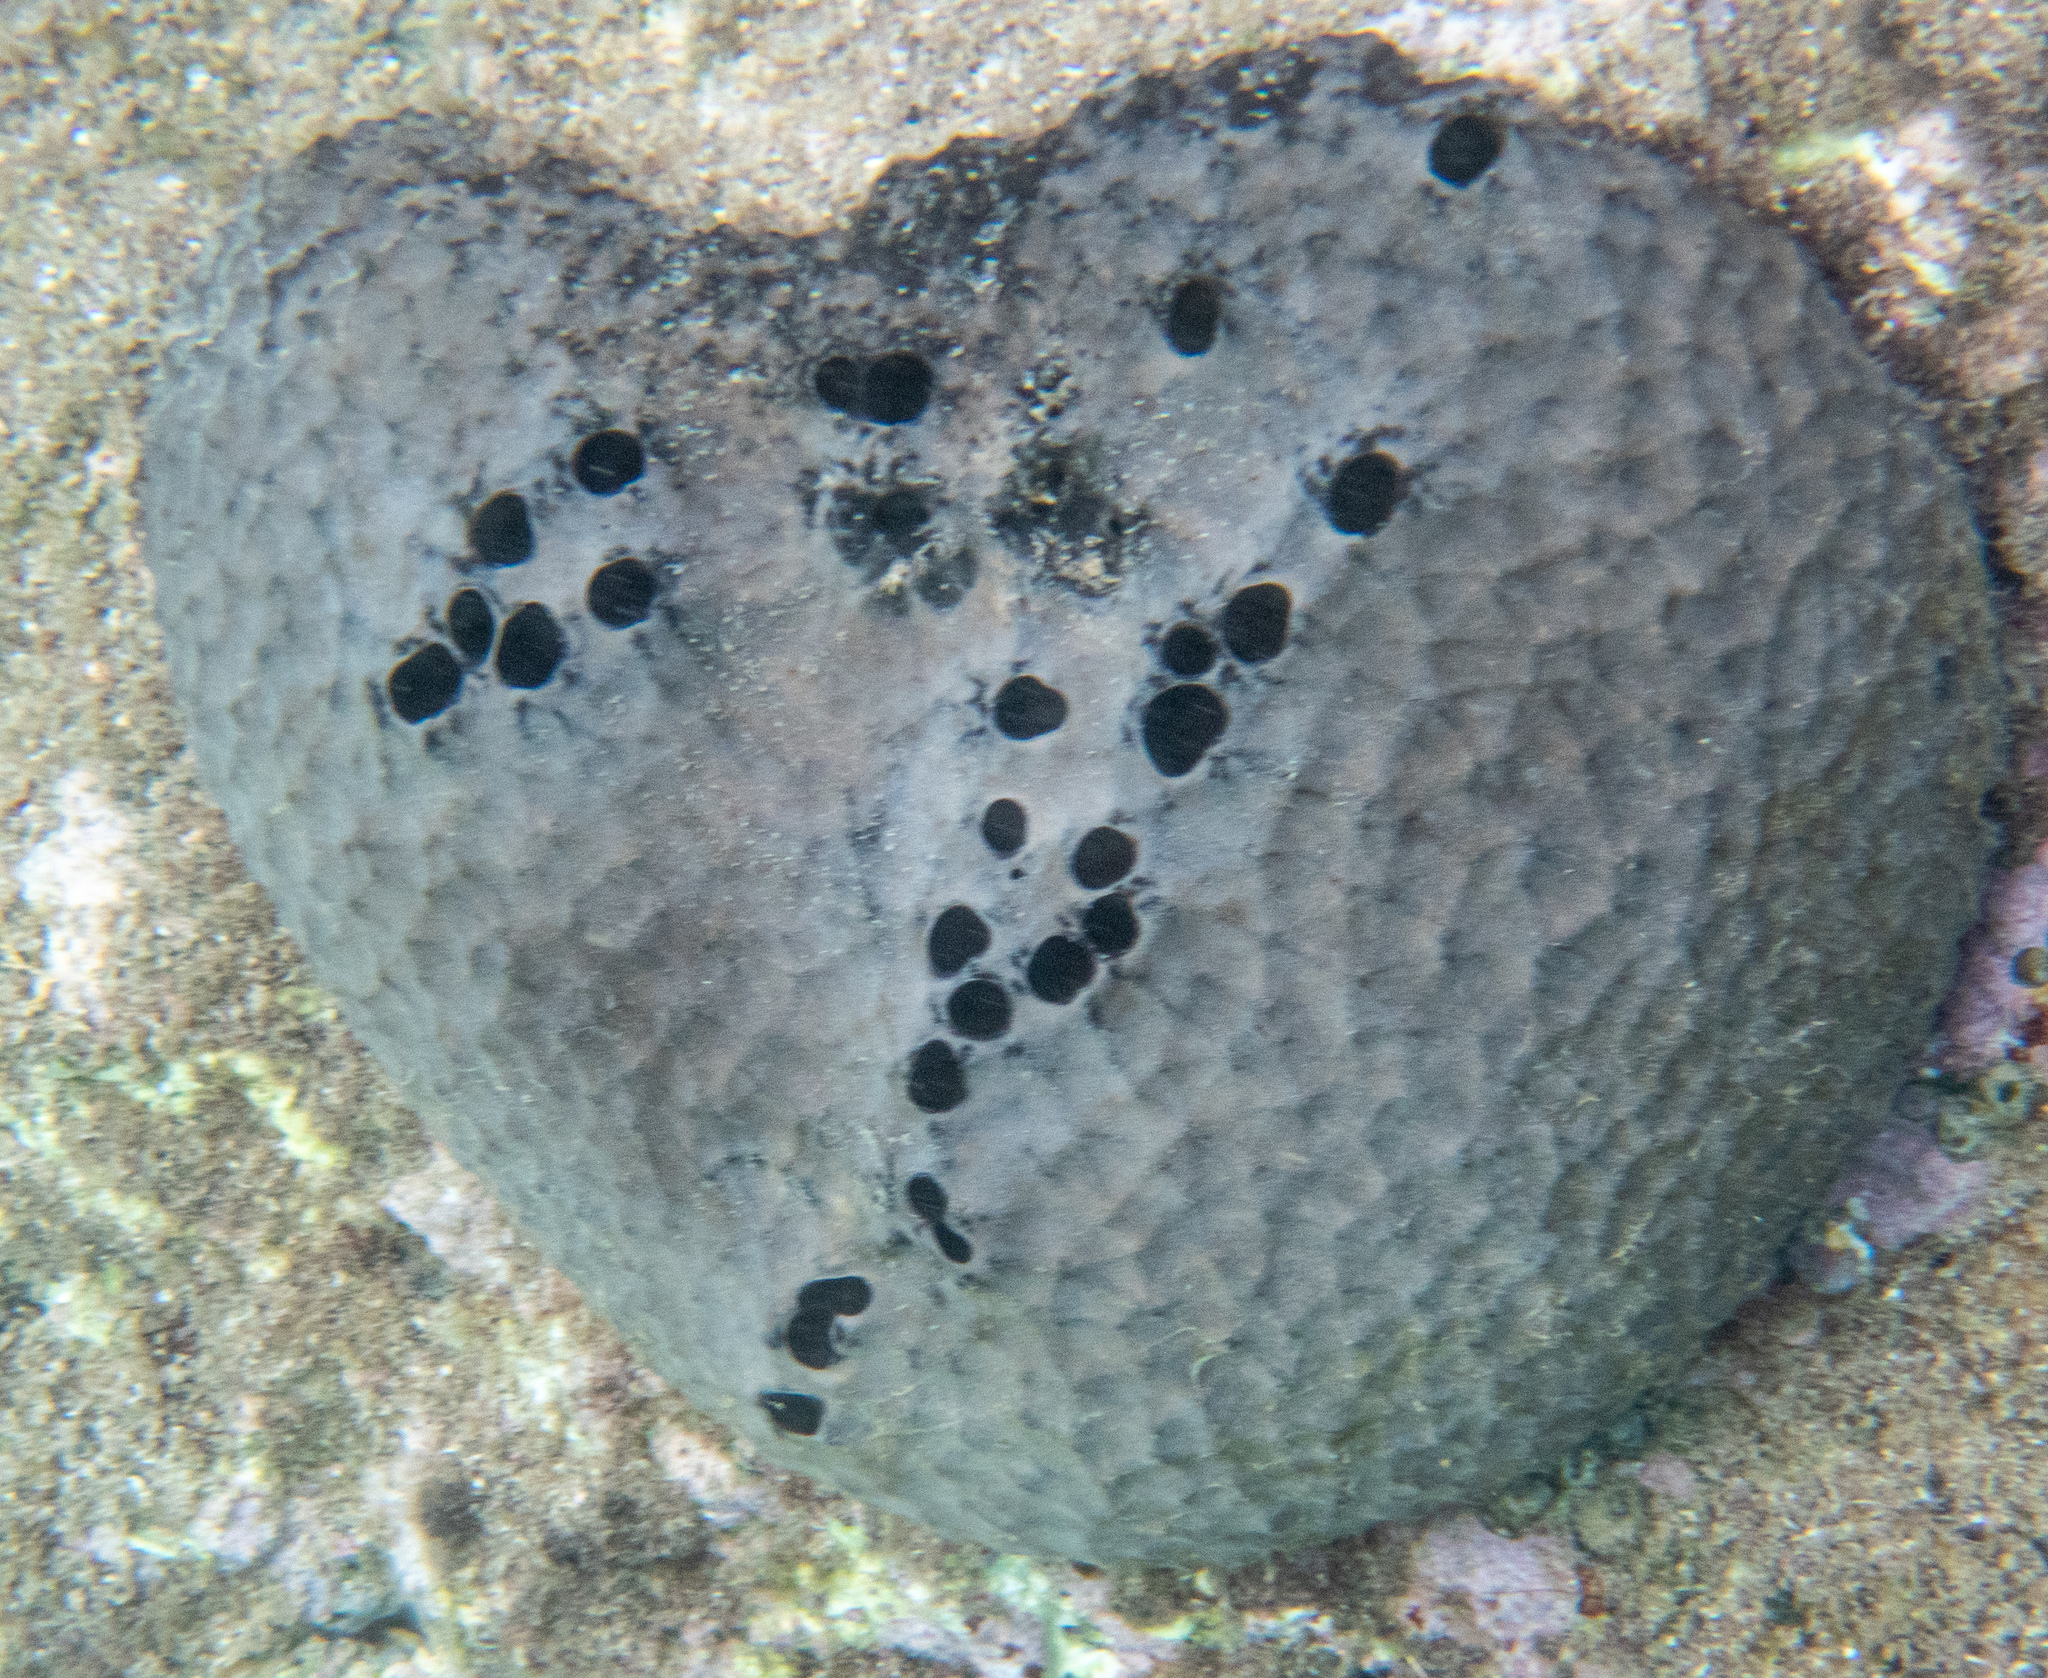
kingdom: Animalia
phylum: Porifera
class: Demospongiae
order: Dictyoceratida
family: Irciniidae
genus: Ircinia
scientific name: Ircinia strobilina
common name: Cake sponge
